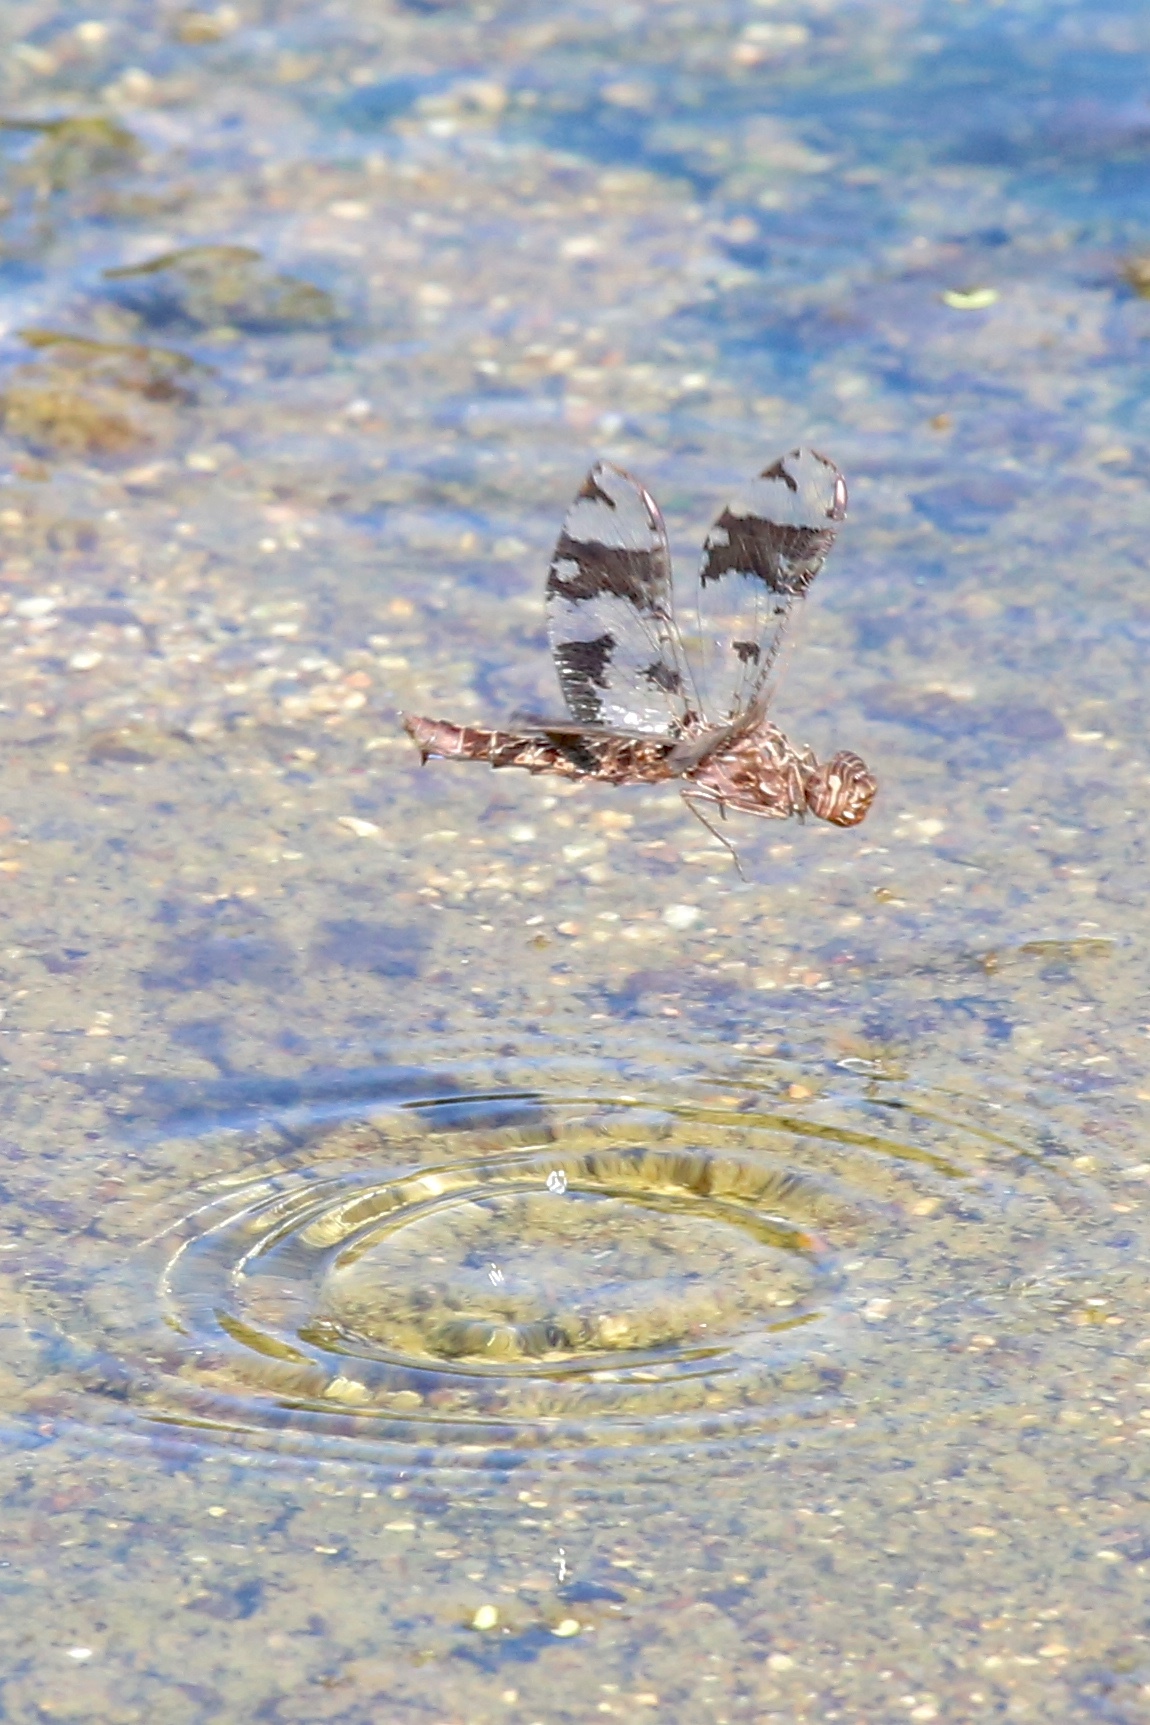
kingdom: Animalia
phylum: Arthropoda
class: Insecta
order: Odonata
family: Libellulidae
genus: Pseudoleon
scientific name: Pseudoleon superbus
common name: Filigree skimmer
